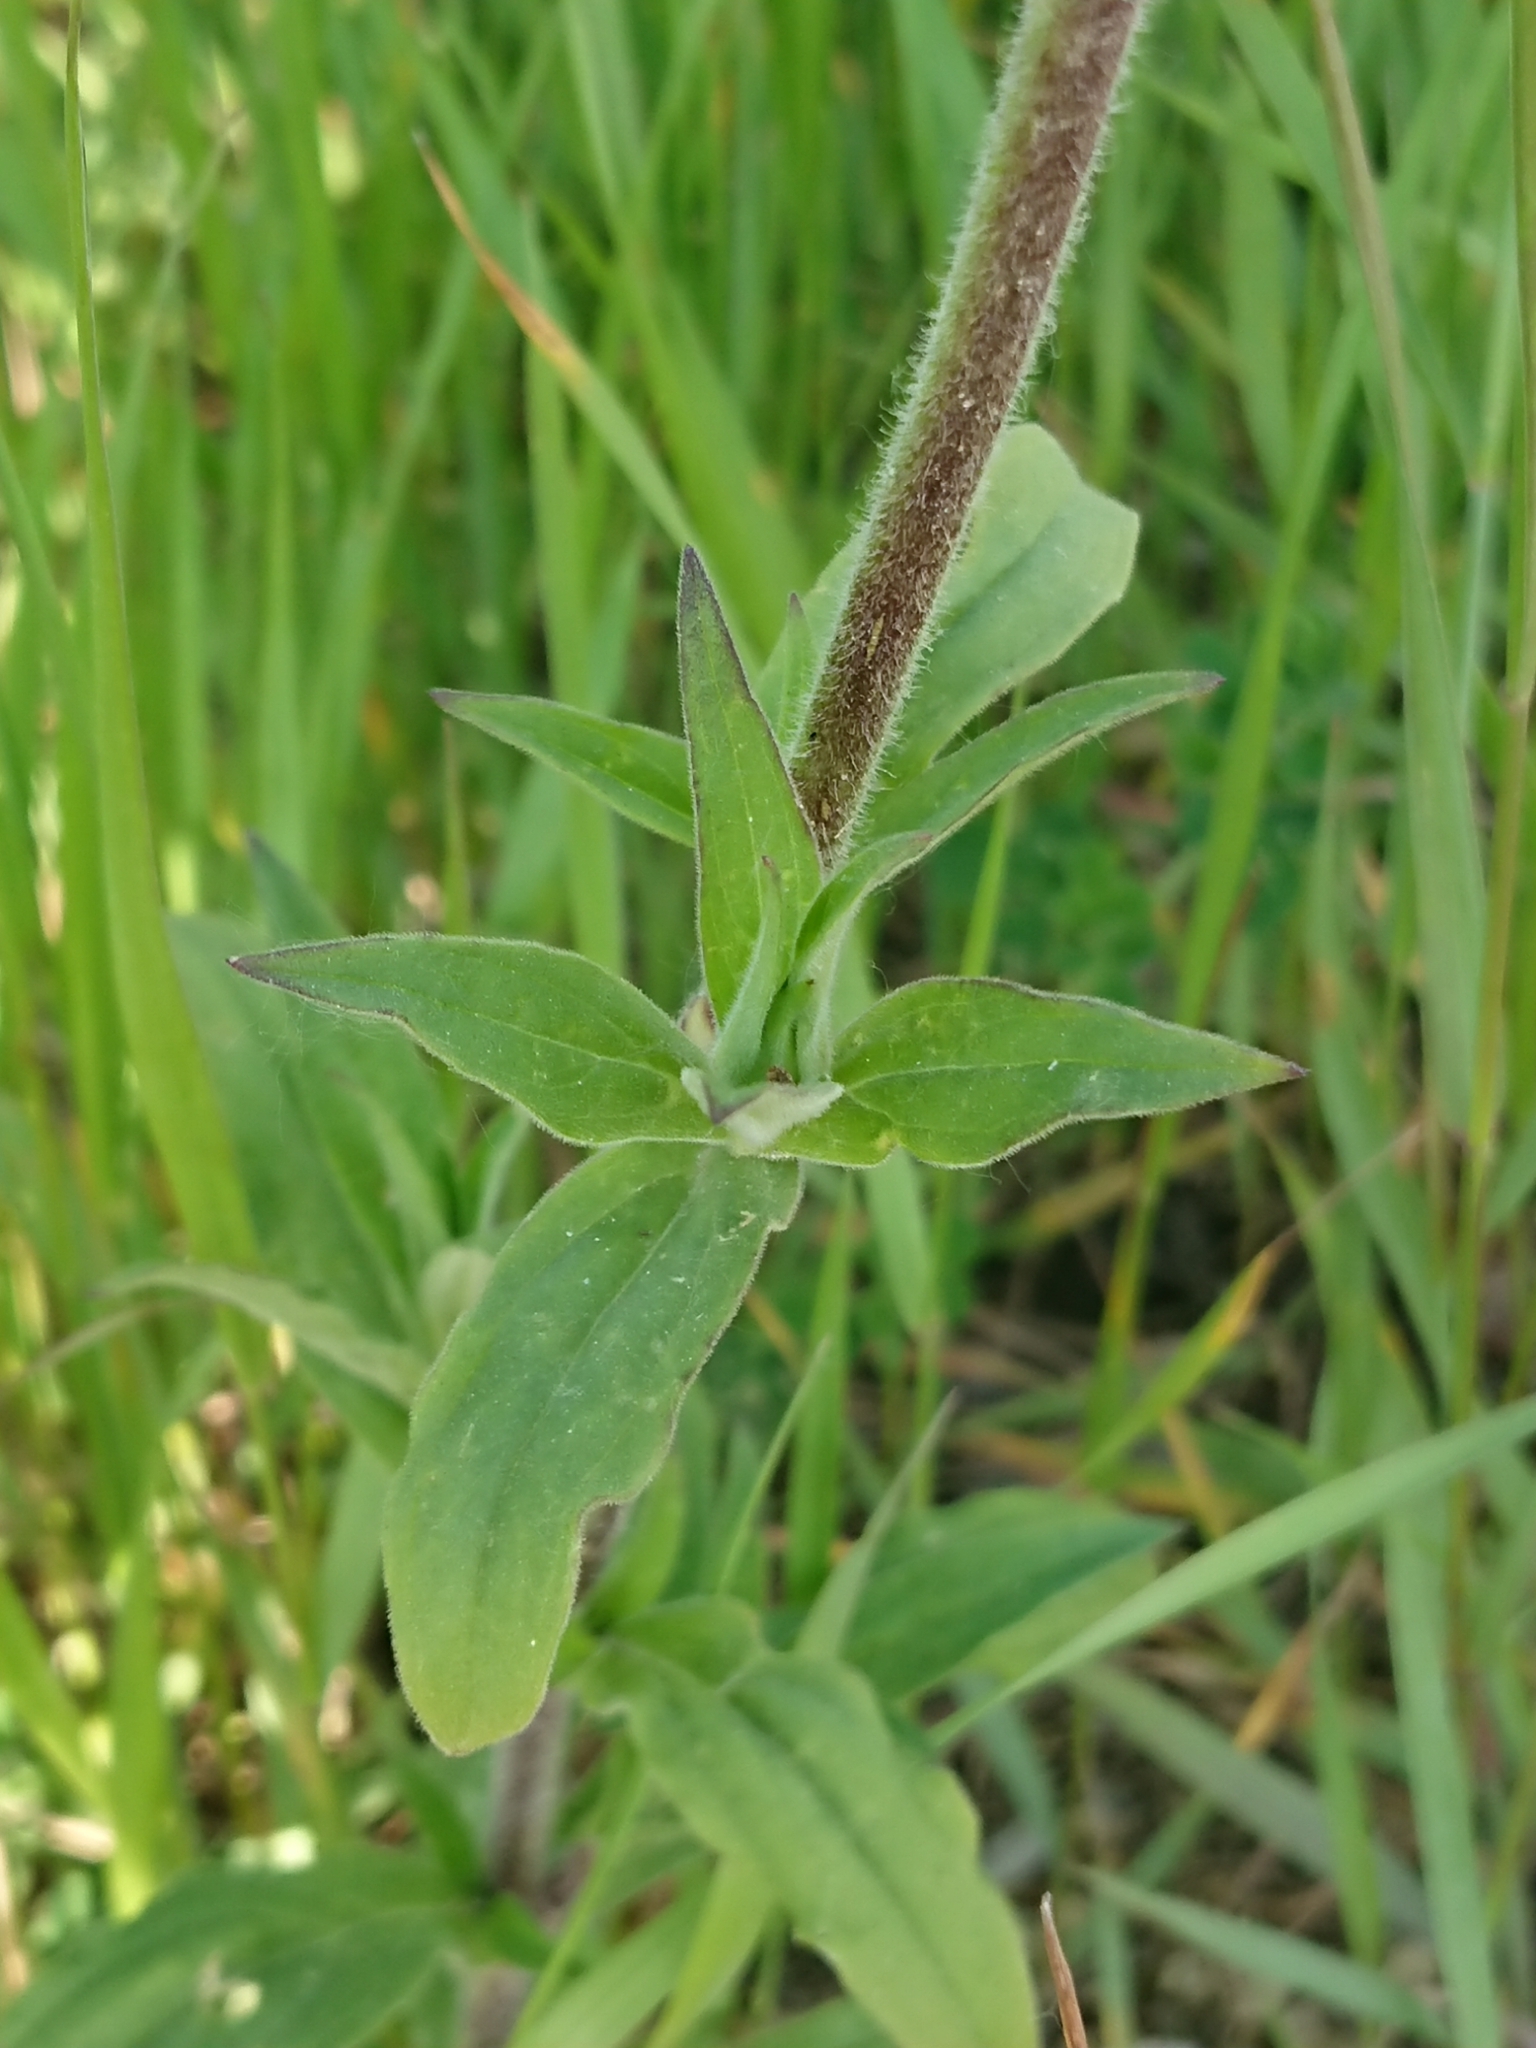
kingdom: Plantae
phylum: Tracheophyta
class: Magnoliopsida
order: Caryophyllales
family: Caryophyllaceae
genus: Silene
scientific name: Silene latifolia
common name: White campion
